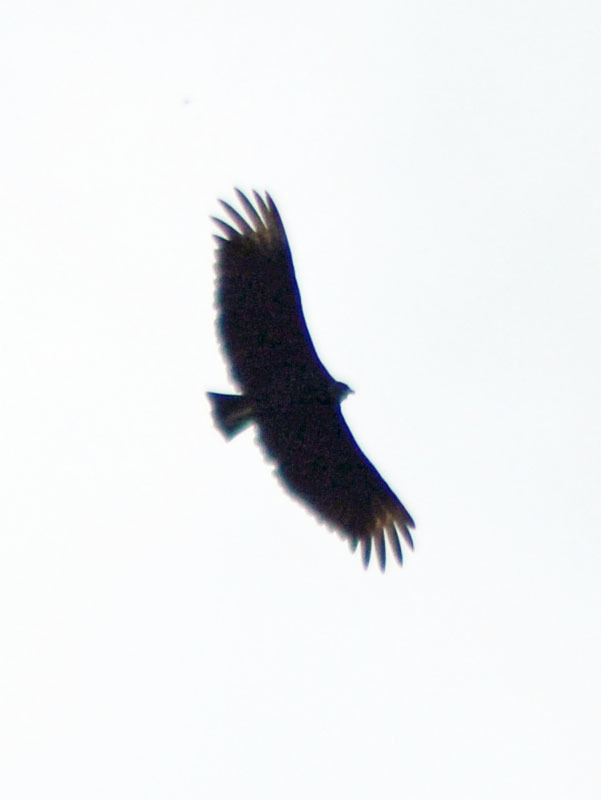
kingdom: Animalia
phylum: Chordata
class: Aves
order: Accipitriformes
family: Cathartidae
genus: Coragyps
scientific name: Coragyps atratus
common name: Black vulture
